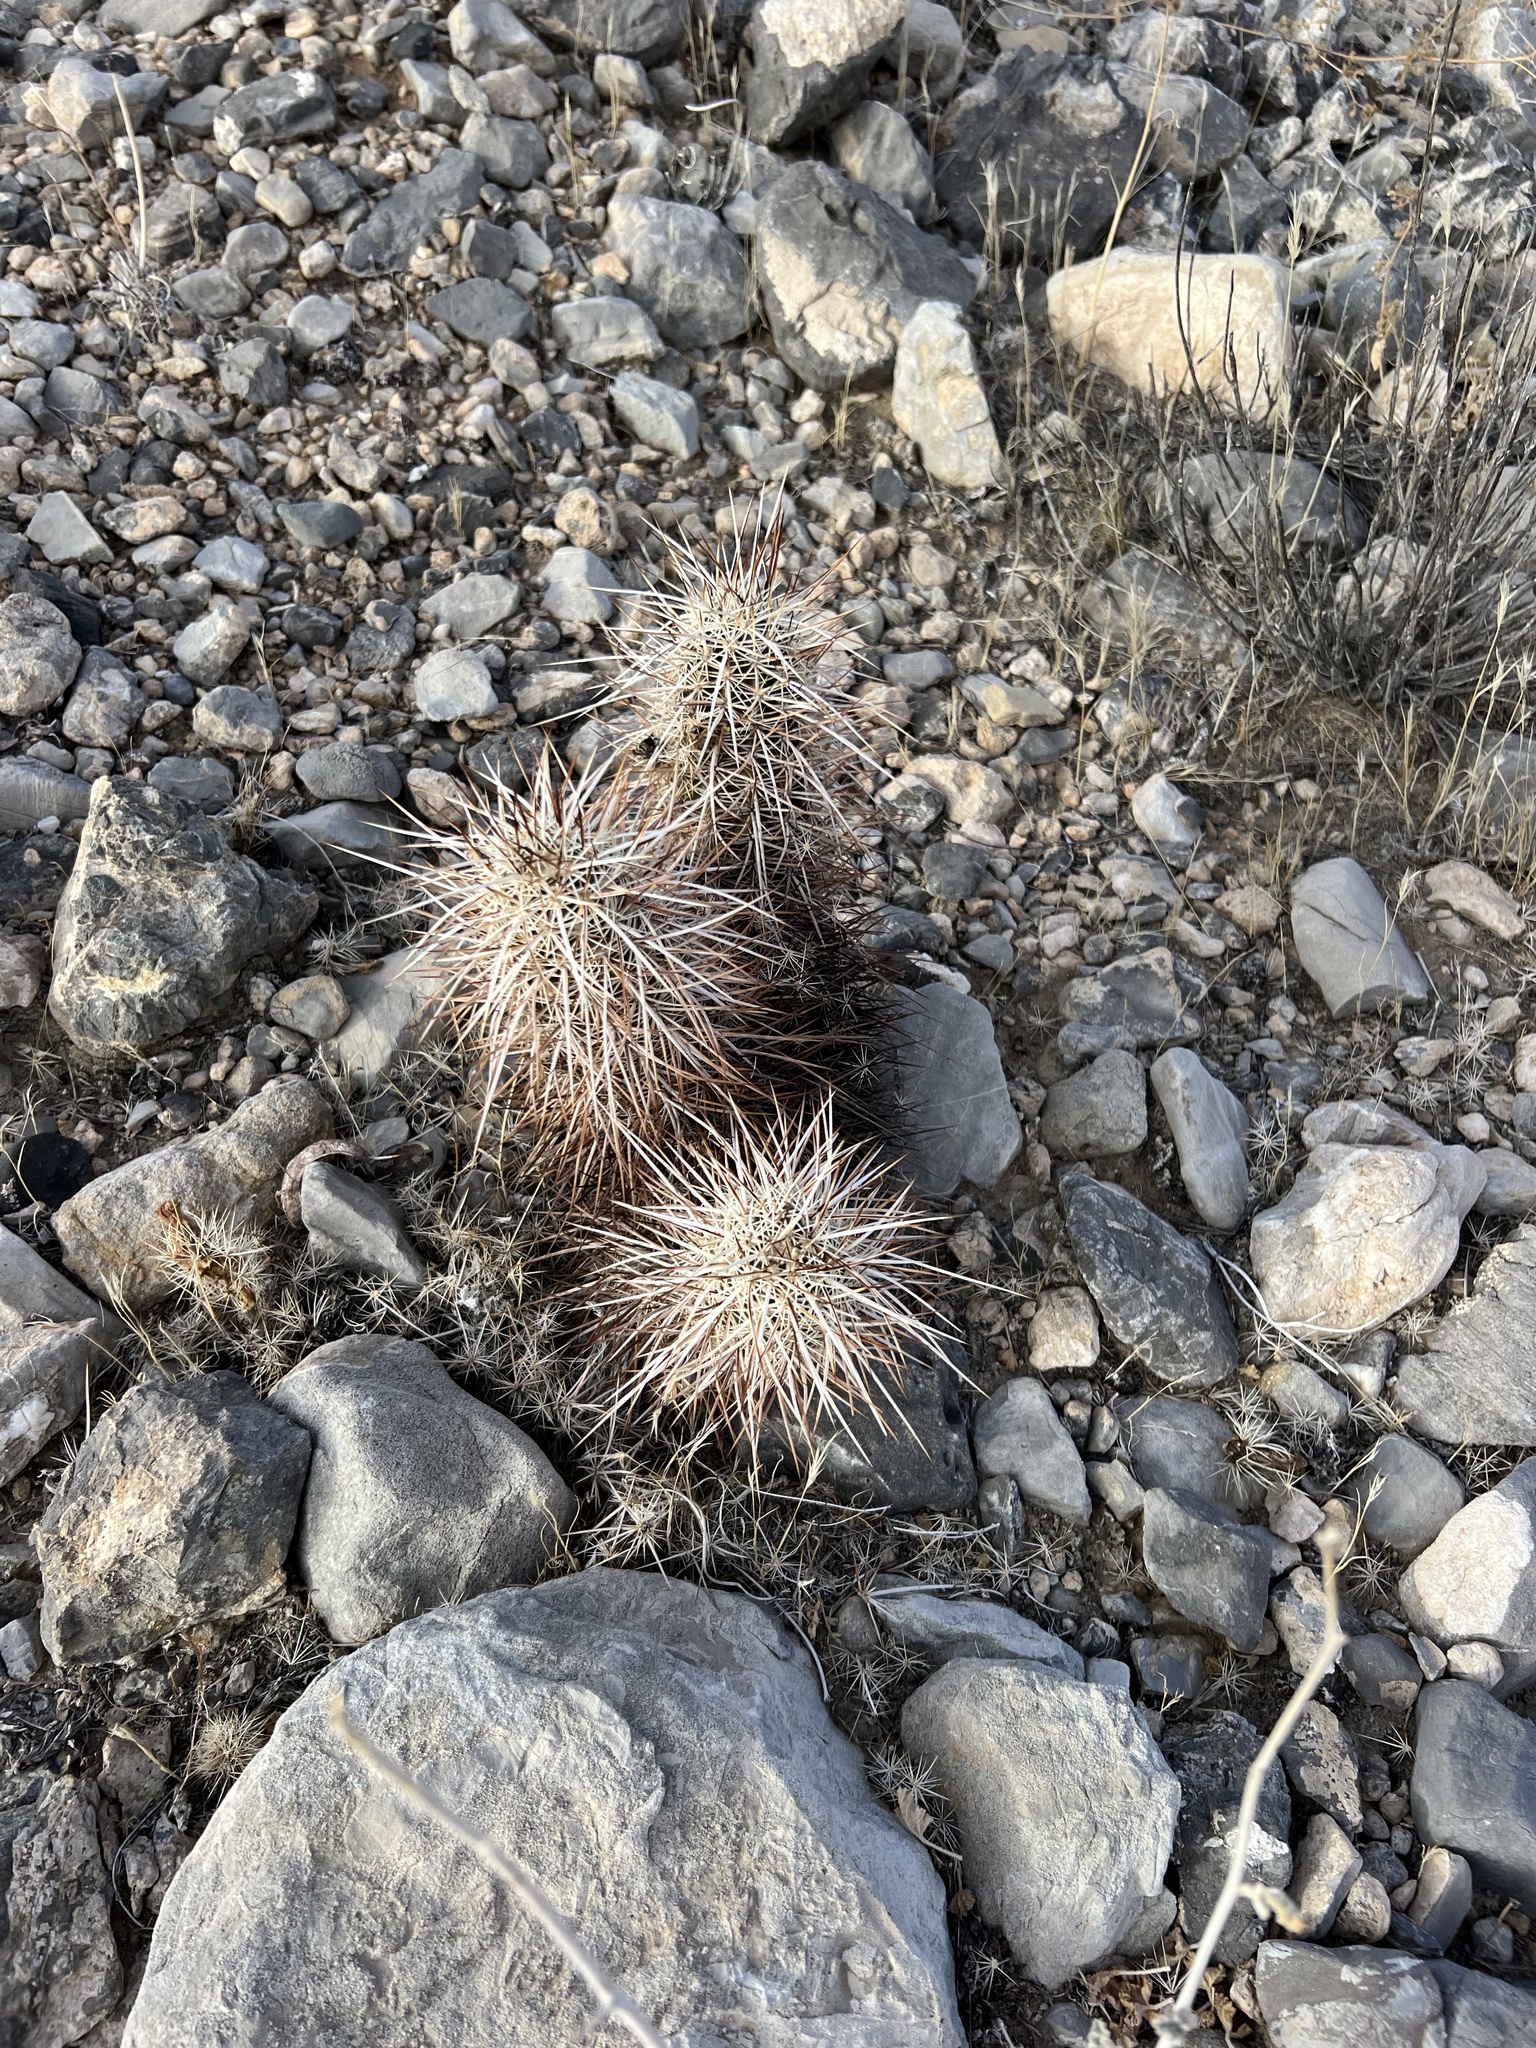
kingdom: Plantae
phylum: Tracheophyta
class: Magnoliopsida
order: Caryophyllales
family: Cactaceae
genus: Echinocereus
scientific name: Echinocereus engelmannii
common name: Engelmann's hedgehog cactus
